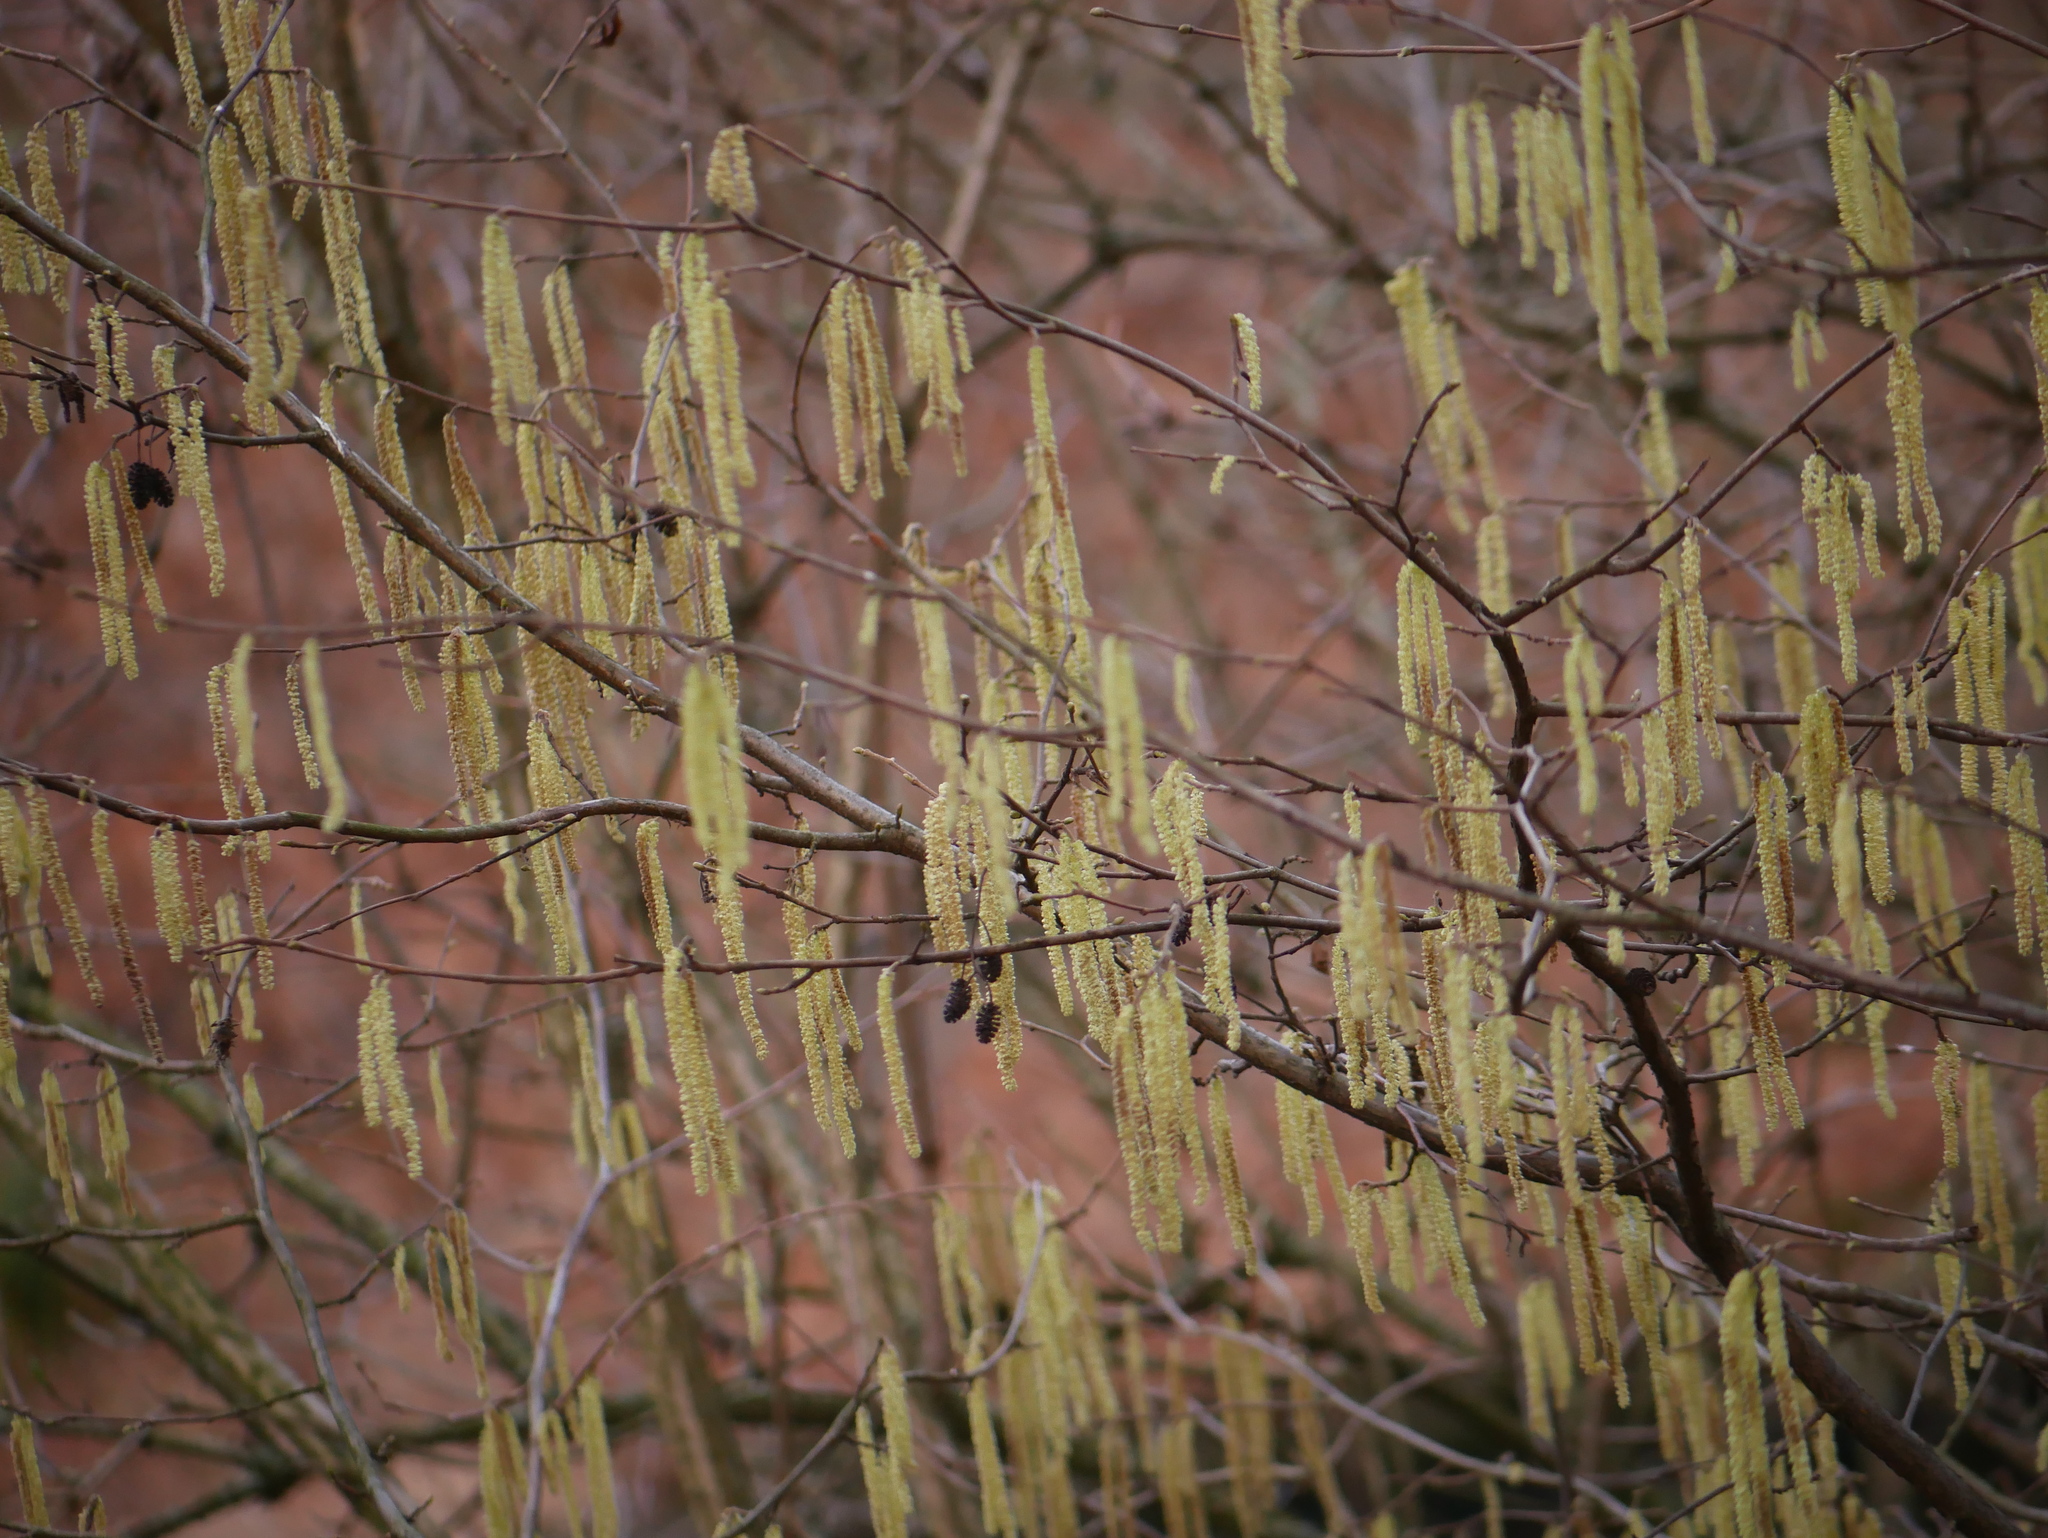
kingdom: Plantae
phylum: Tracheophyta
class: Magnoliopsida
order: Fagales
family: Betulaceae
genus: Corylus
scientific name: Corylus avellana
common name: European hazel
